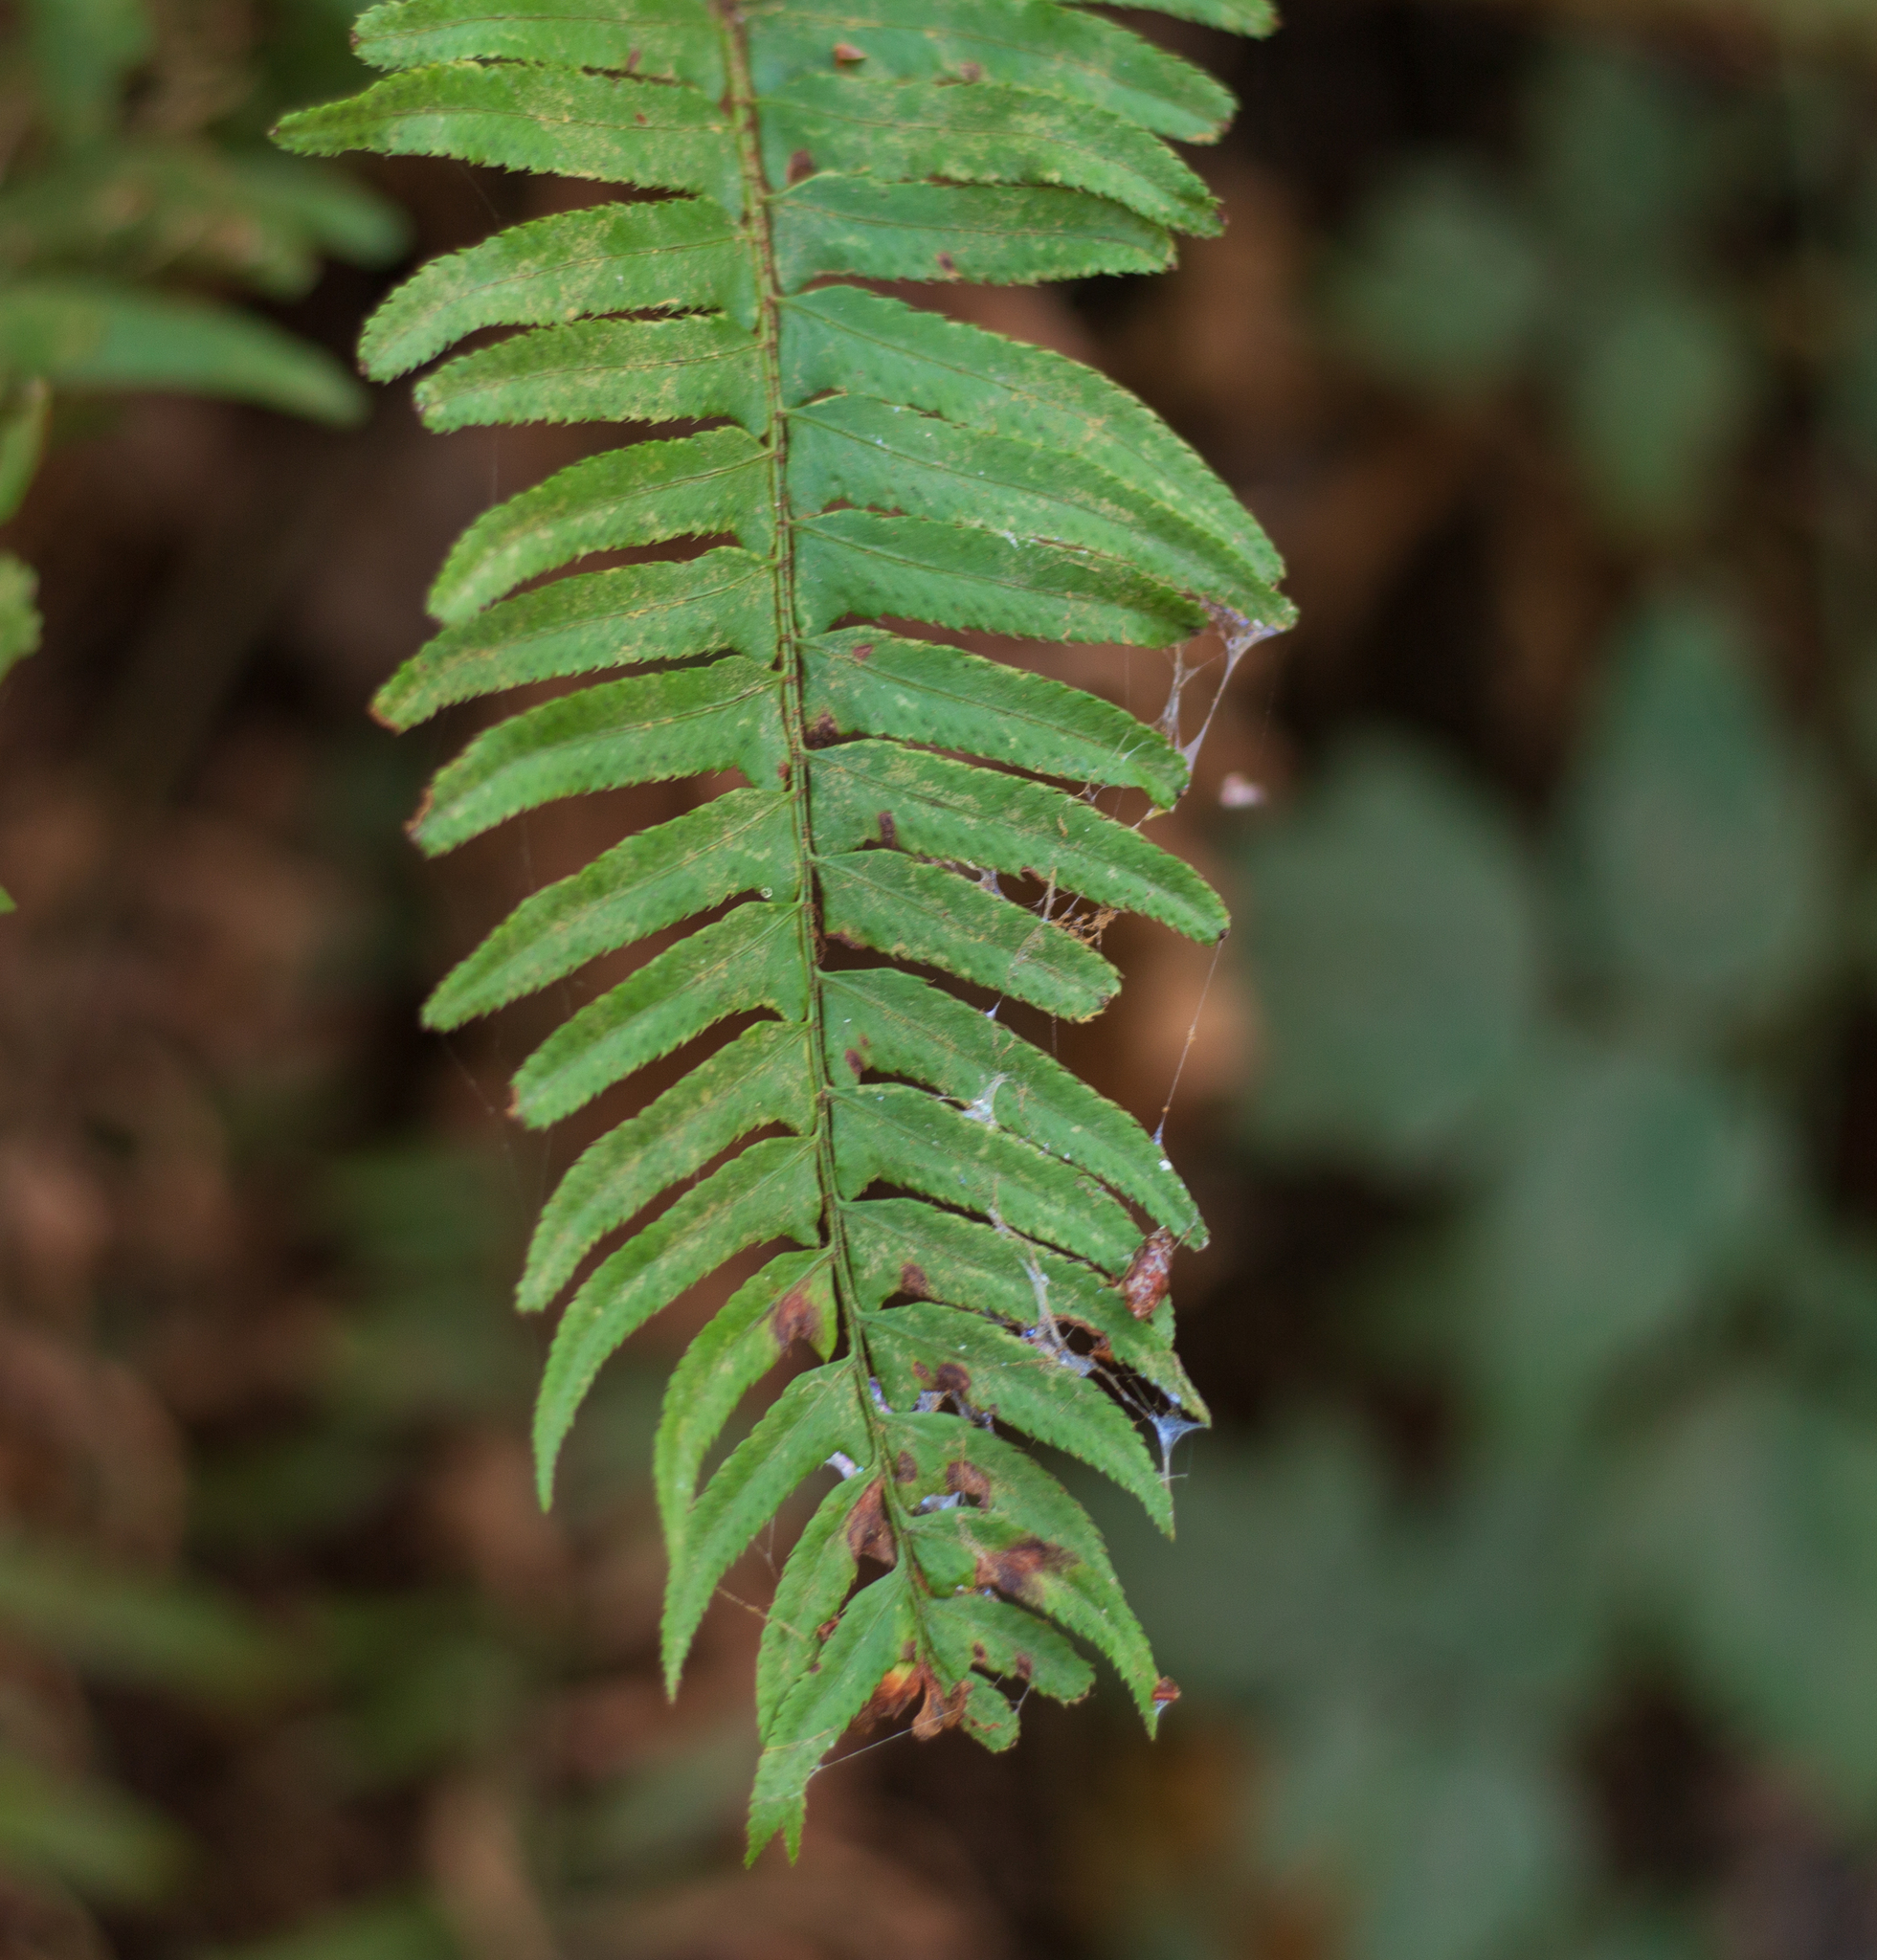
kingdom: Plantae
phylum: Tracheophyta
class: Polypodiopsida
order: Polypodiales
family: Dryopteridaceae
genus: Polystichum
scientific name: Polystichum munitum
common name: Western sword-fern
